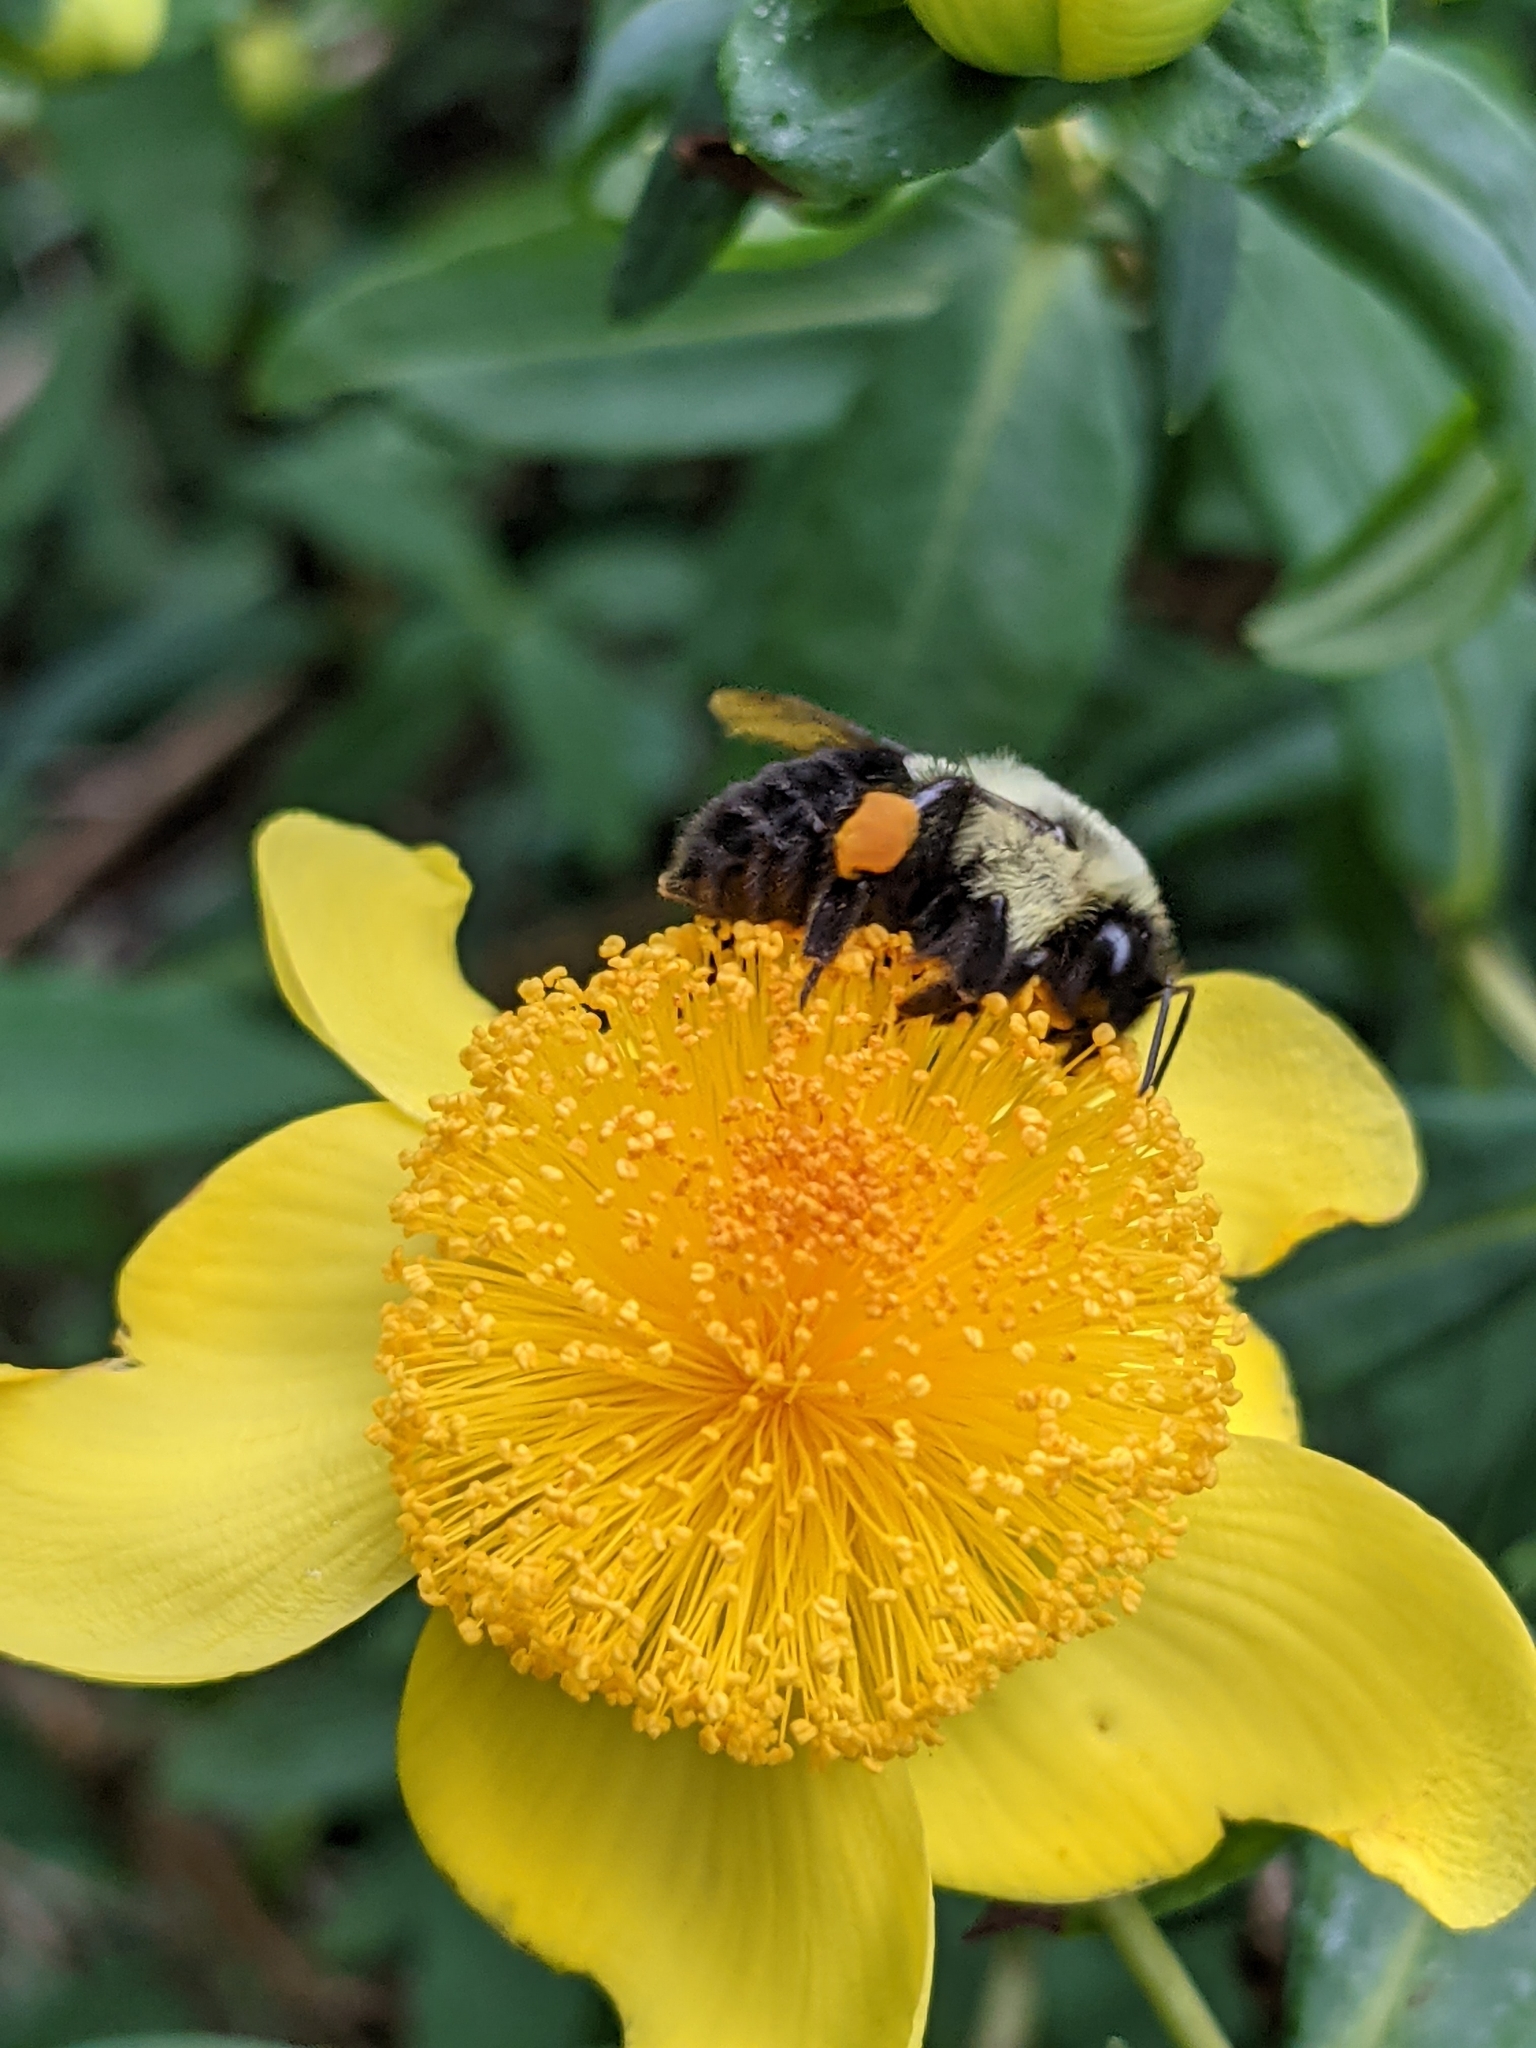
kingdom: Animalia
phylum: Arthropoda
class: Insecta
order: Hymenoptera
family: Apidae
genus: Bombus
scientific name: Bombus impatiens
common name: Common eastern bumble bee
